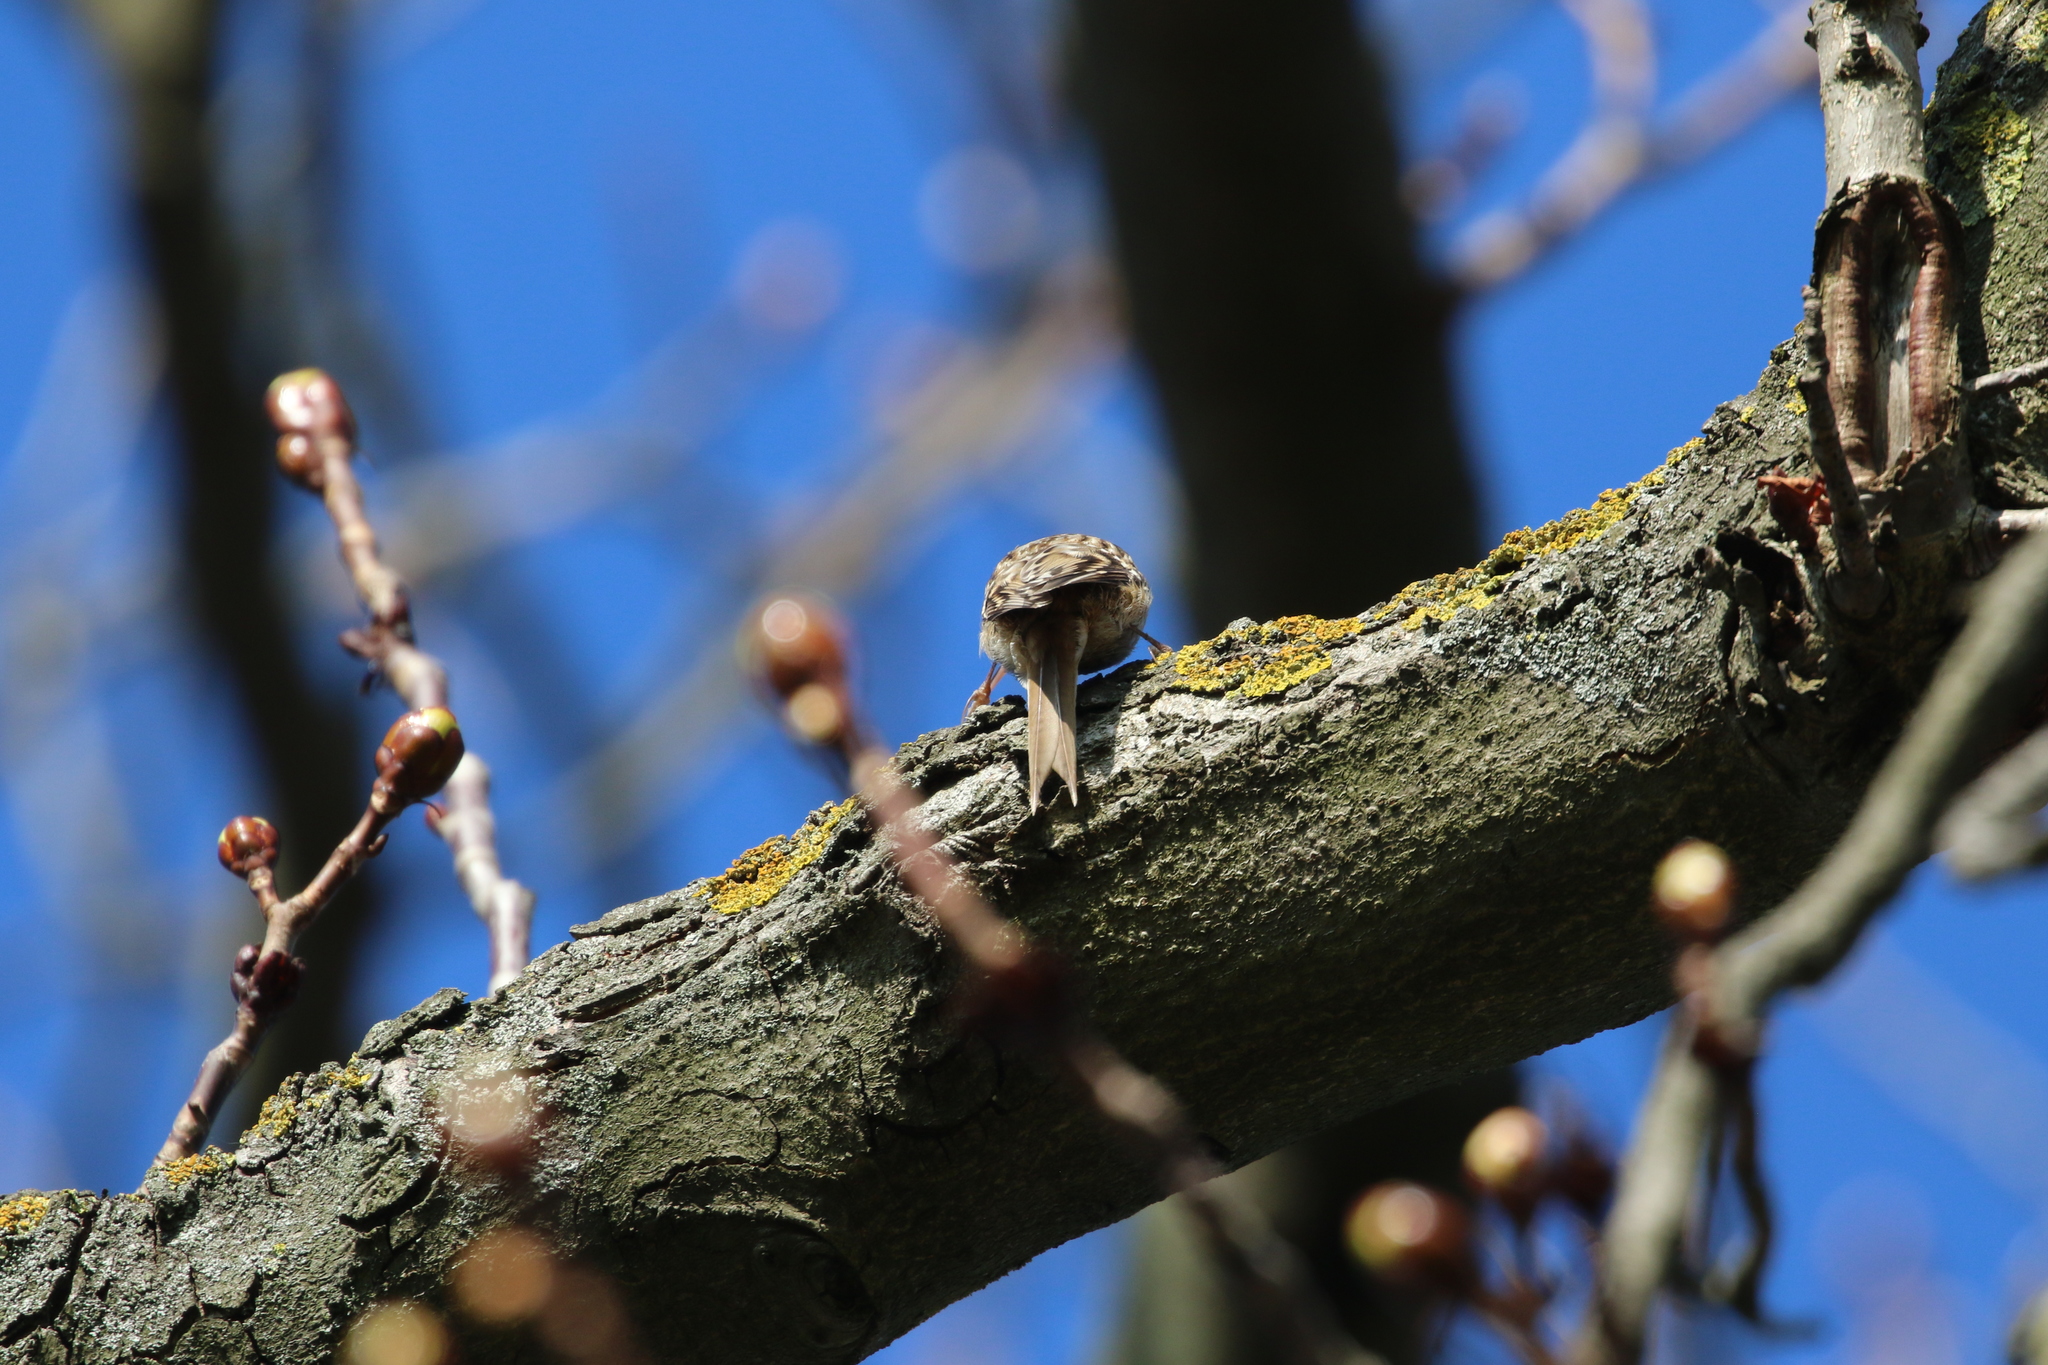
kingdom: Animalia
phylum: Chordata
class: Aves
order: Passeriformes
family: Certhiidae
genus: Certhia
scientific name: Certhia brachydactyla
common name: Short-toed treecreeper
